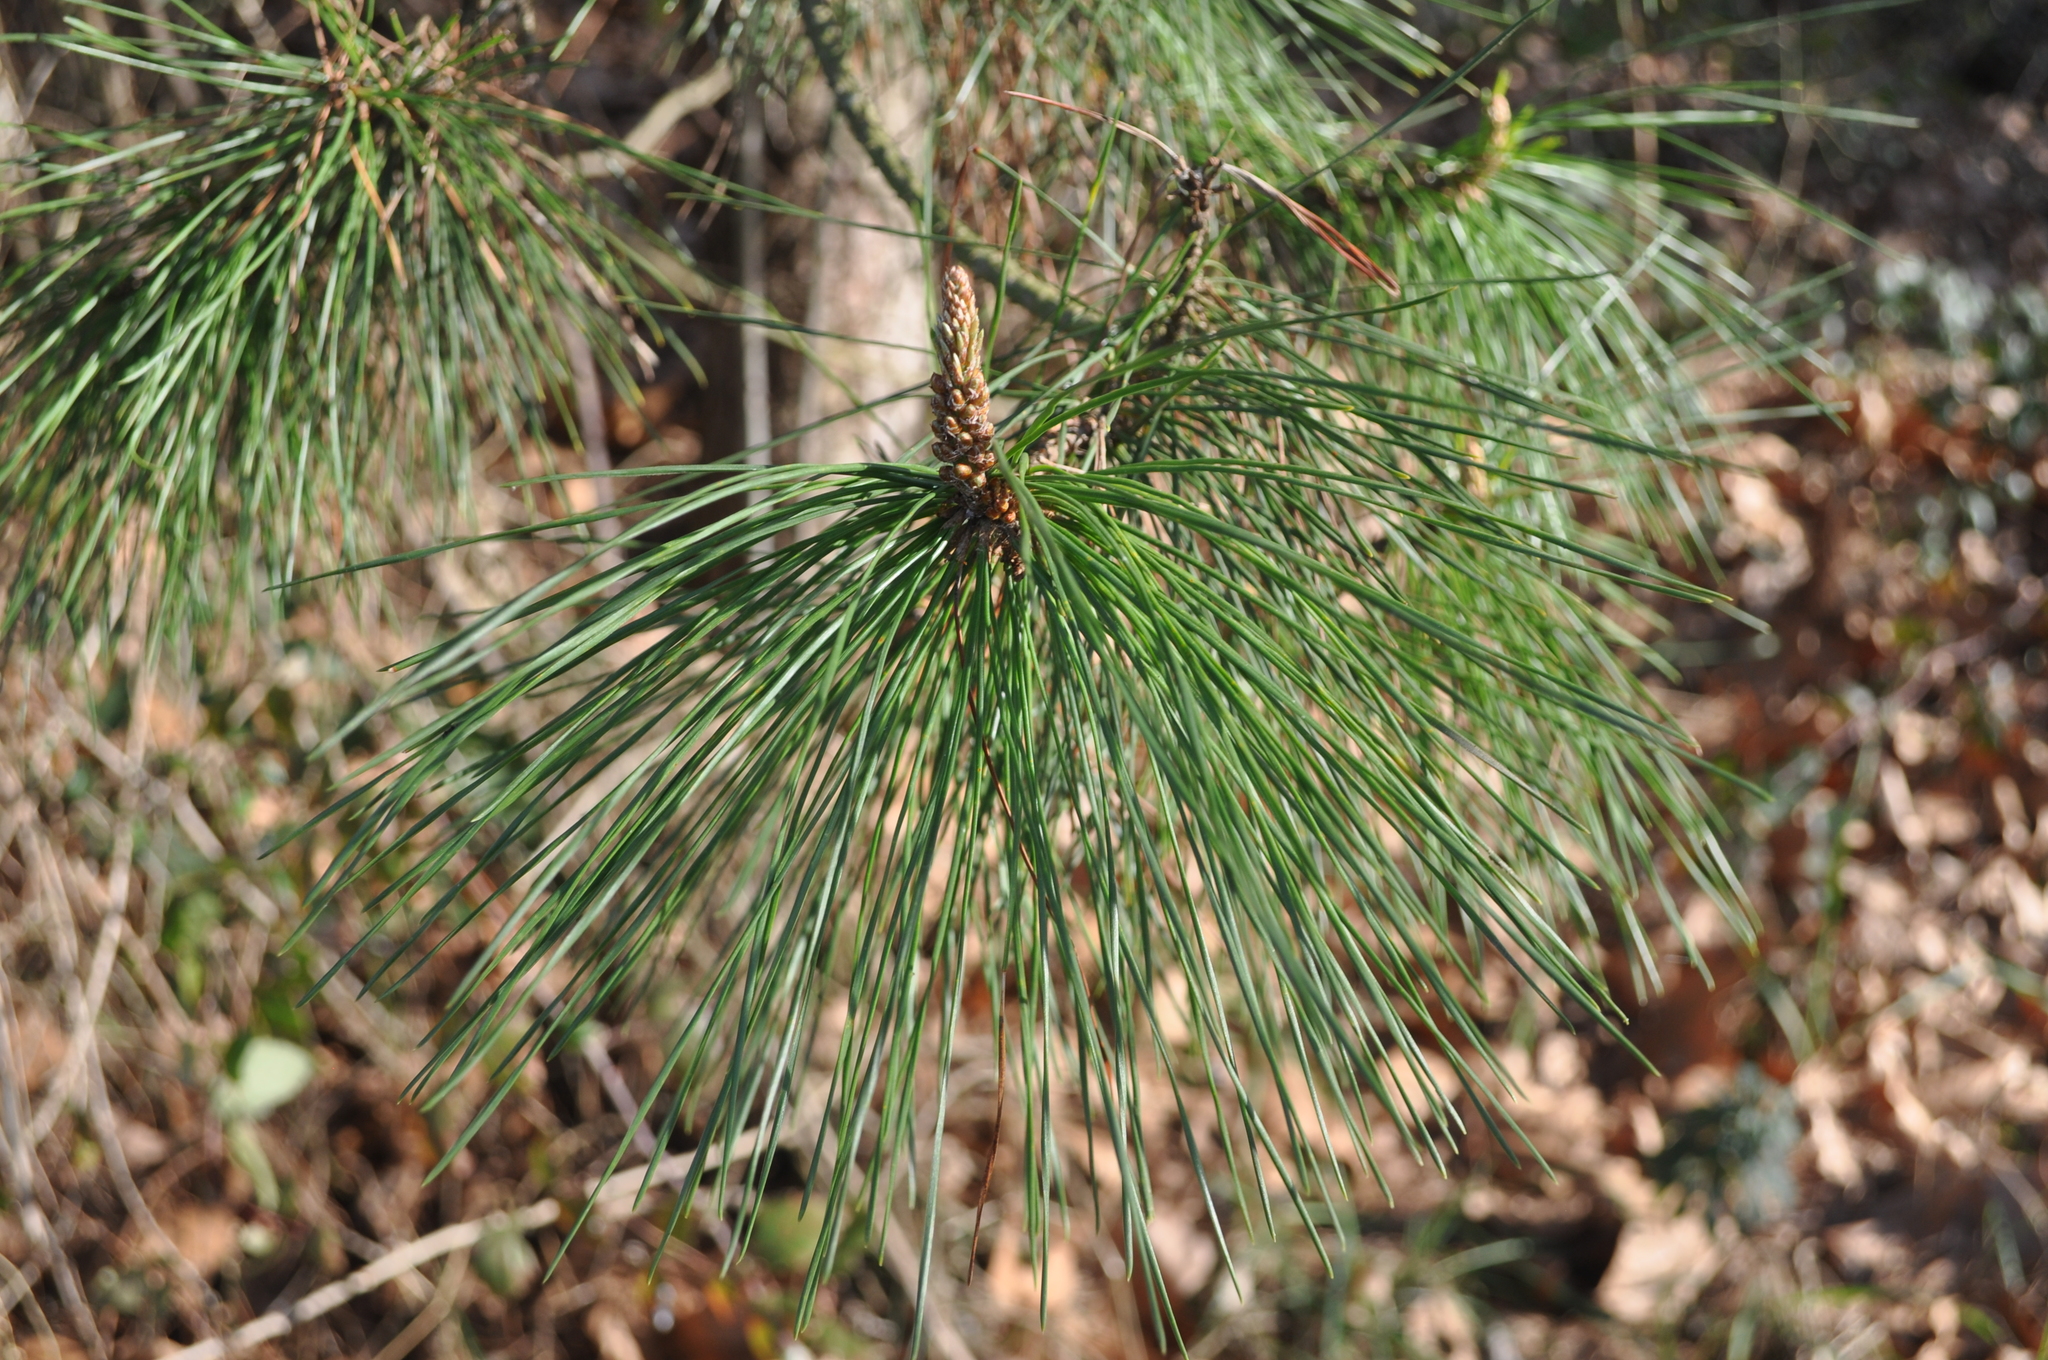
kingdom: Plantae
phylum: Tracheophyta
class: Pinopsida
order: Pinales
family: Pinaceae
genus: Pinus
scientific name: Pinus radiata
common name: Monterey pine
